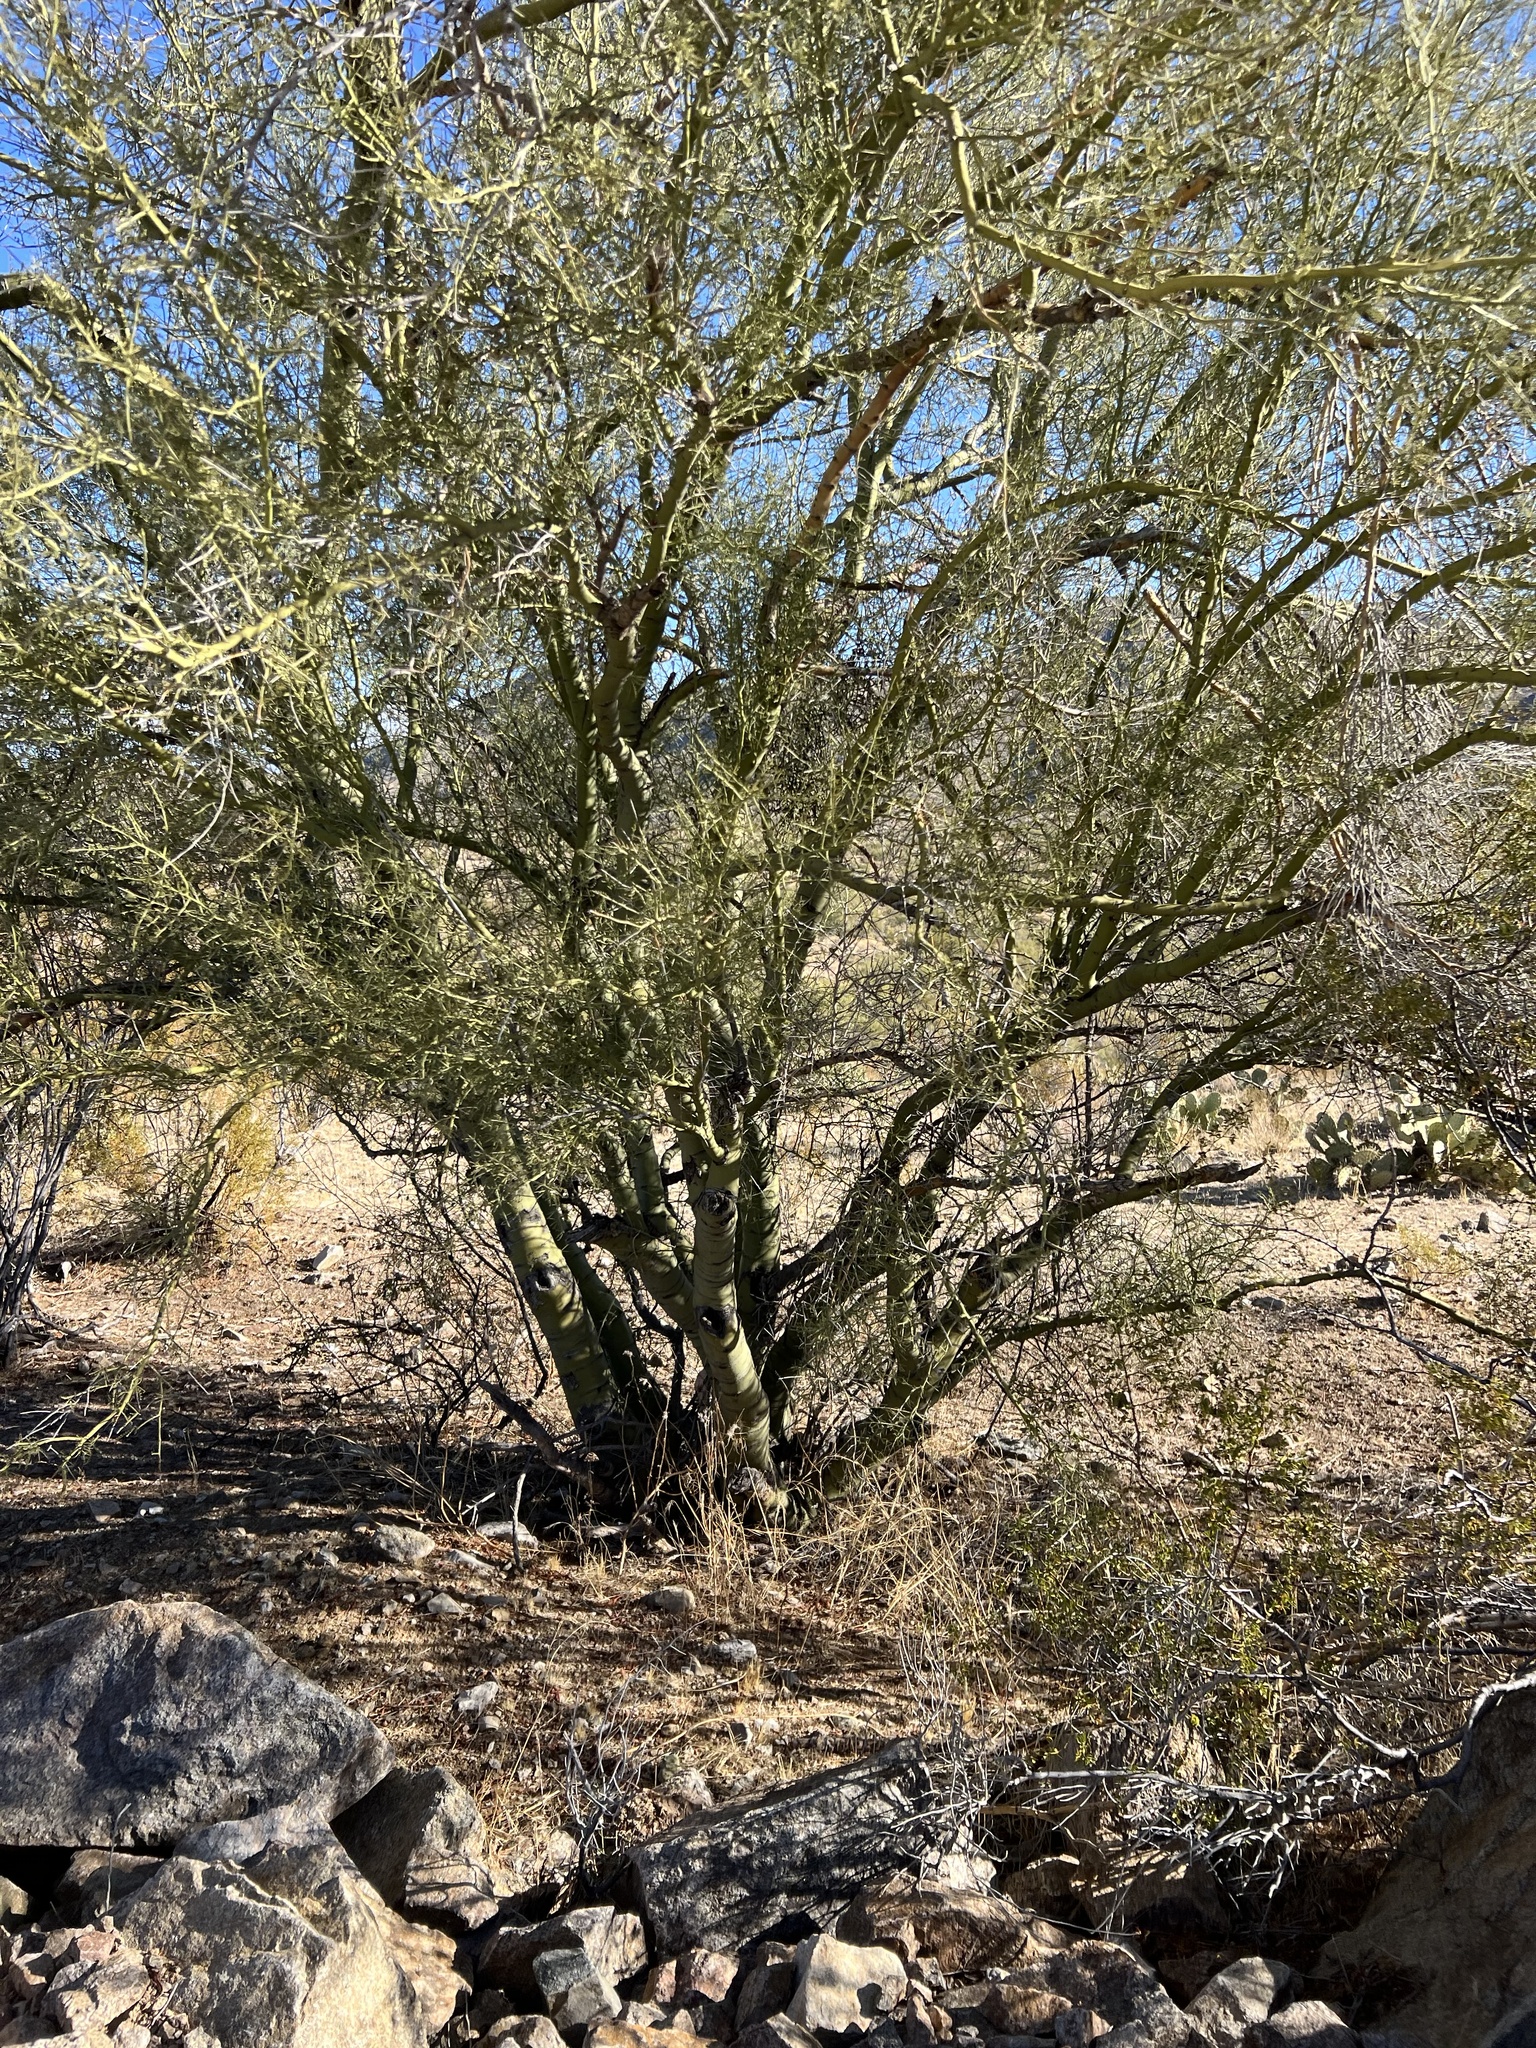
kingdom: Plantae
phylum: Tracheophyta
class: Magnoliopsida
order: Fabales
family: Fabaceae
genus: Parkinsonia
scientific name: Parkinsonia microphylla
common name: Yellow paloverde
